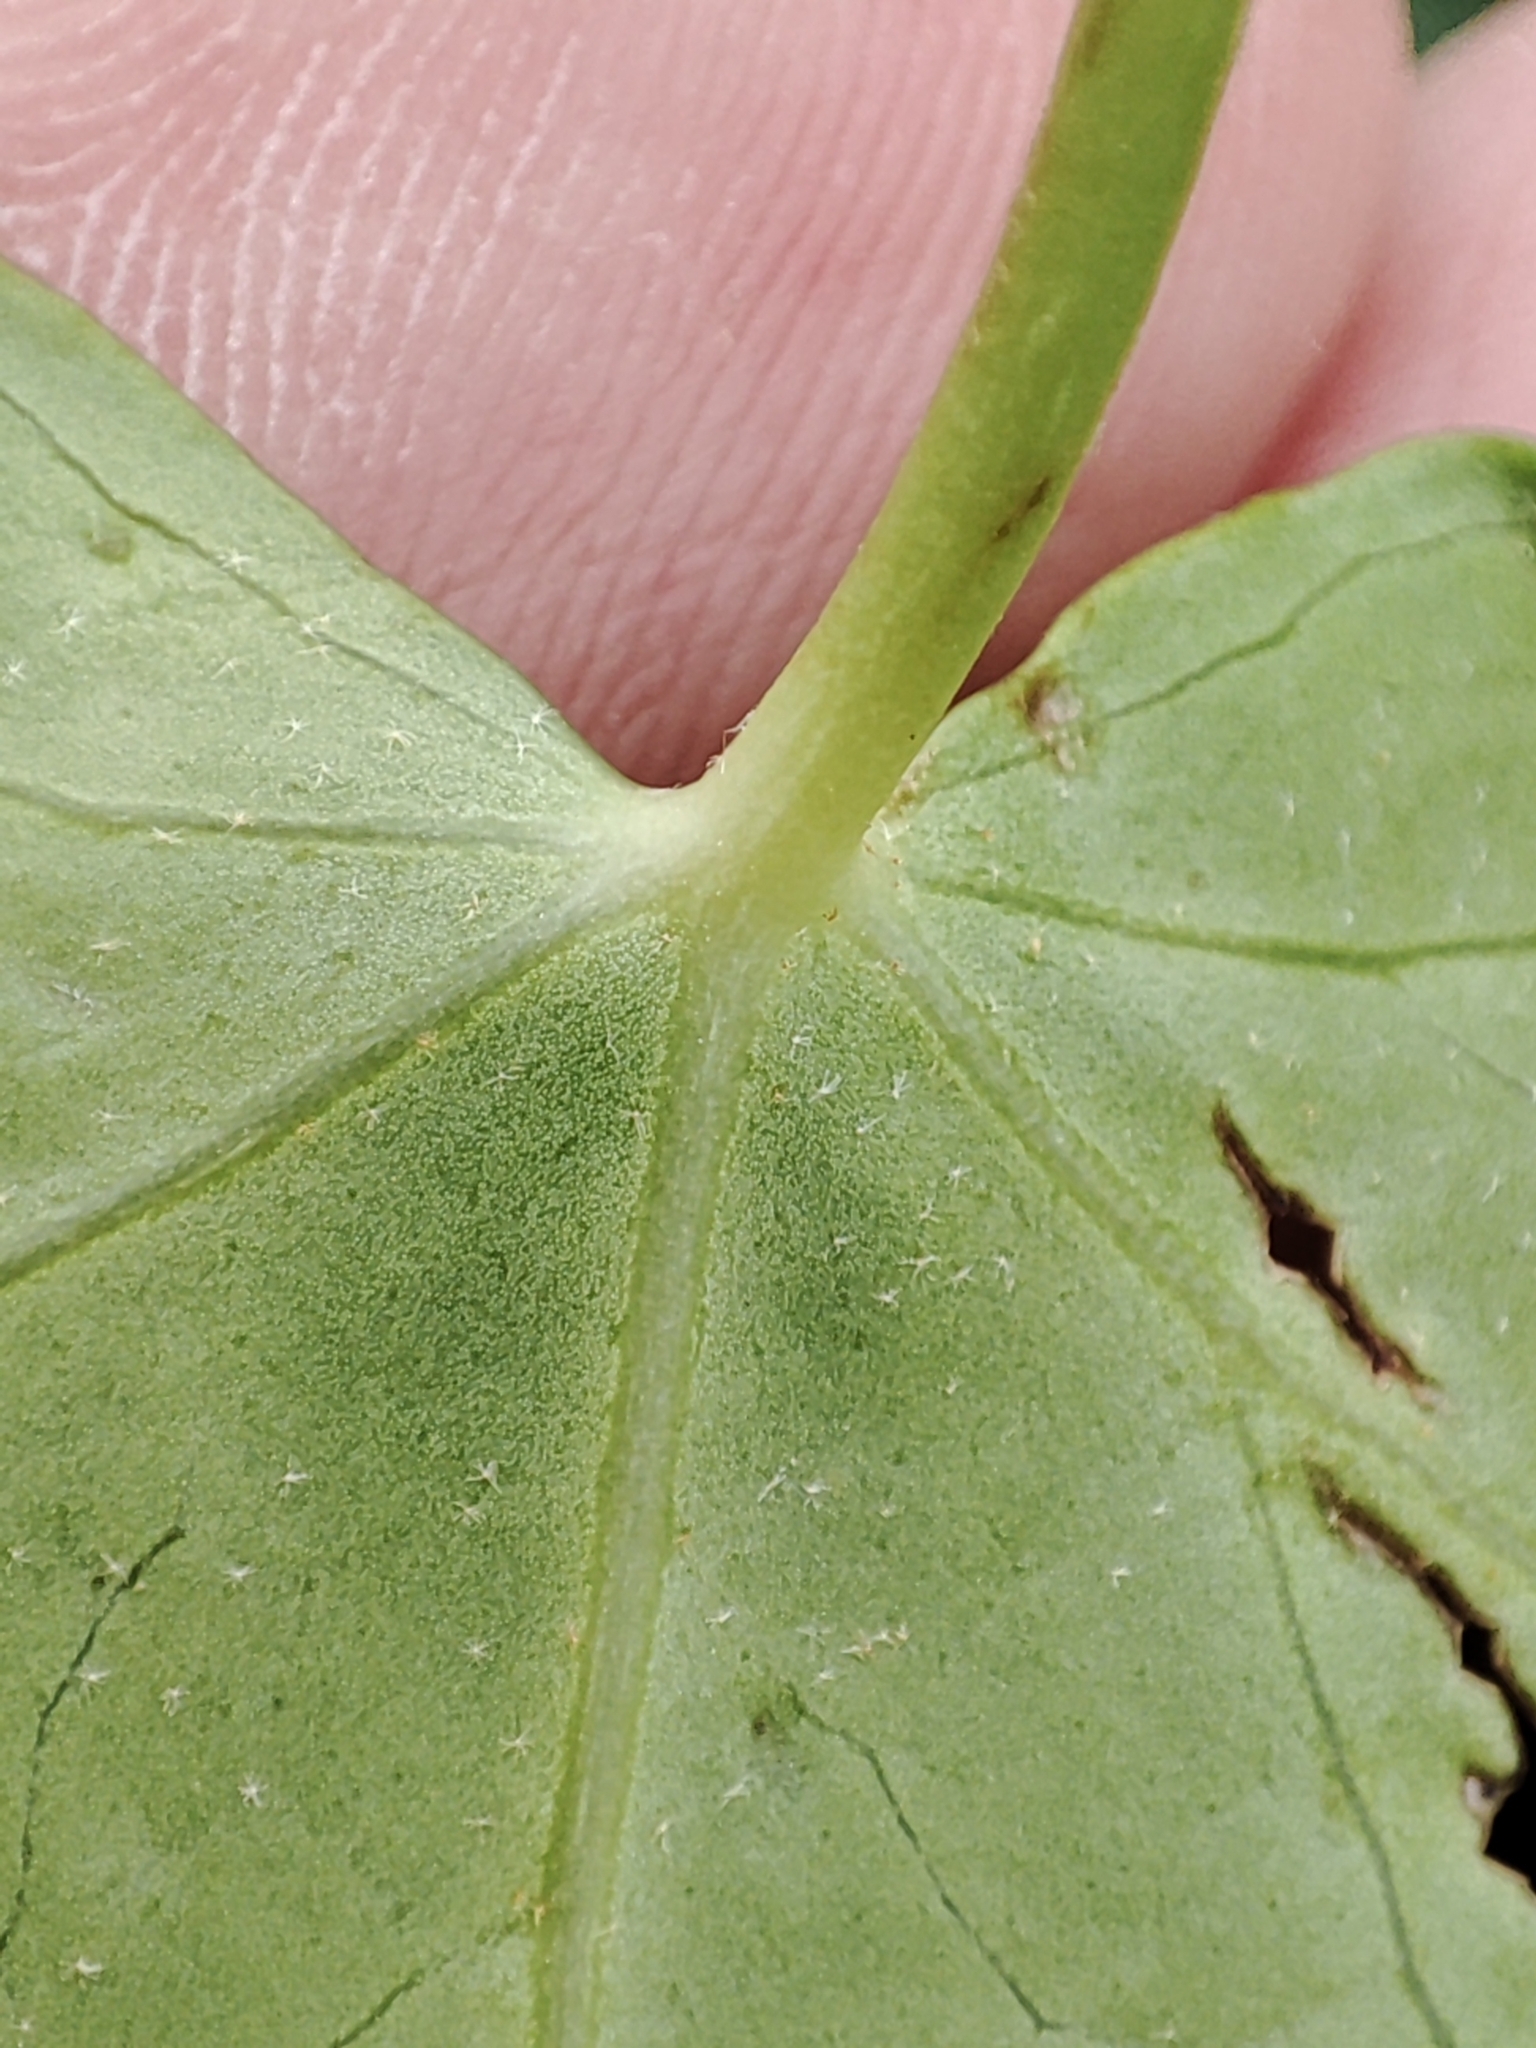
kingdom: Plantae
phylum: Tracheophyta
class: Magnoliopsida
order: Apiales
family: Araliaceae
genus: Hedera
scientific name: Hedera helix
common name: Ivy
